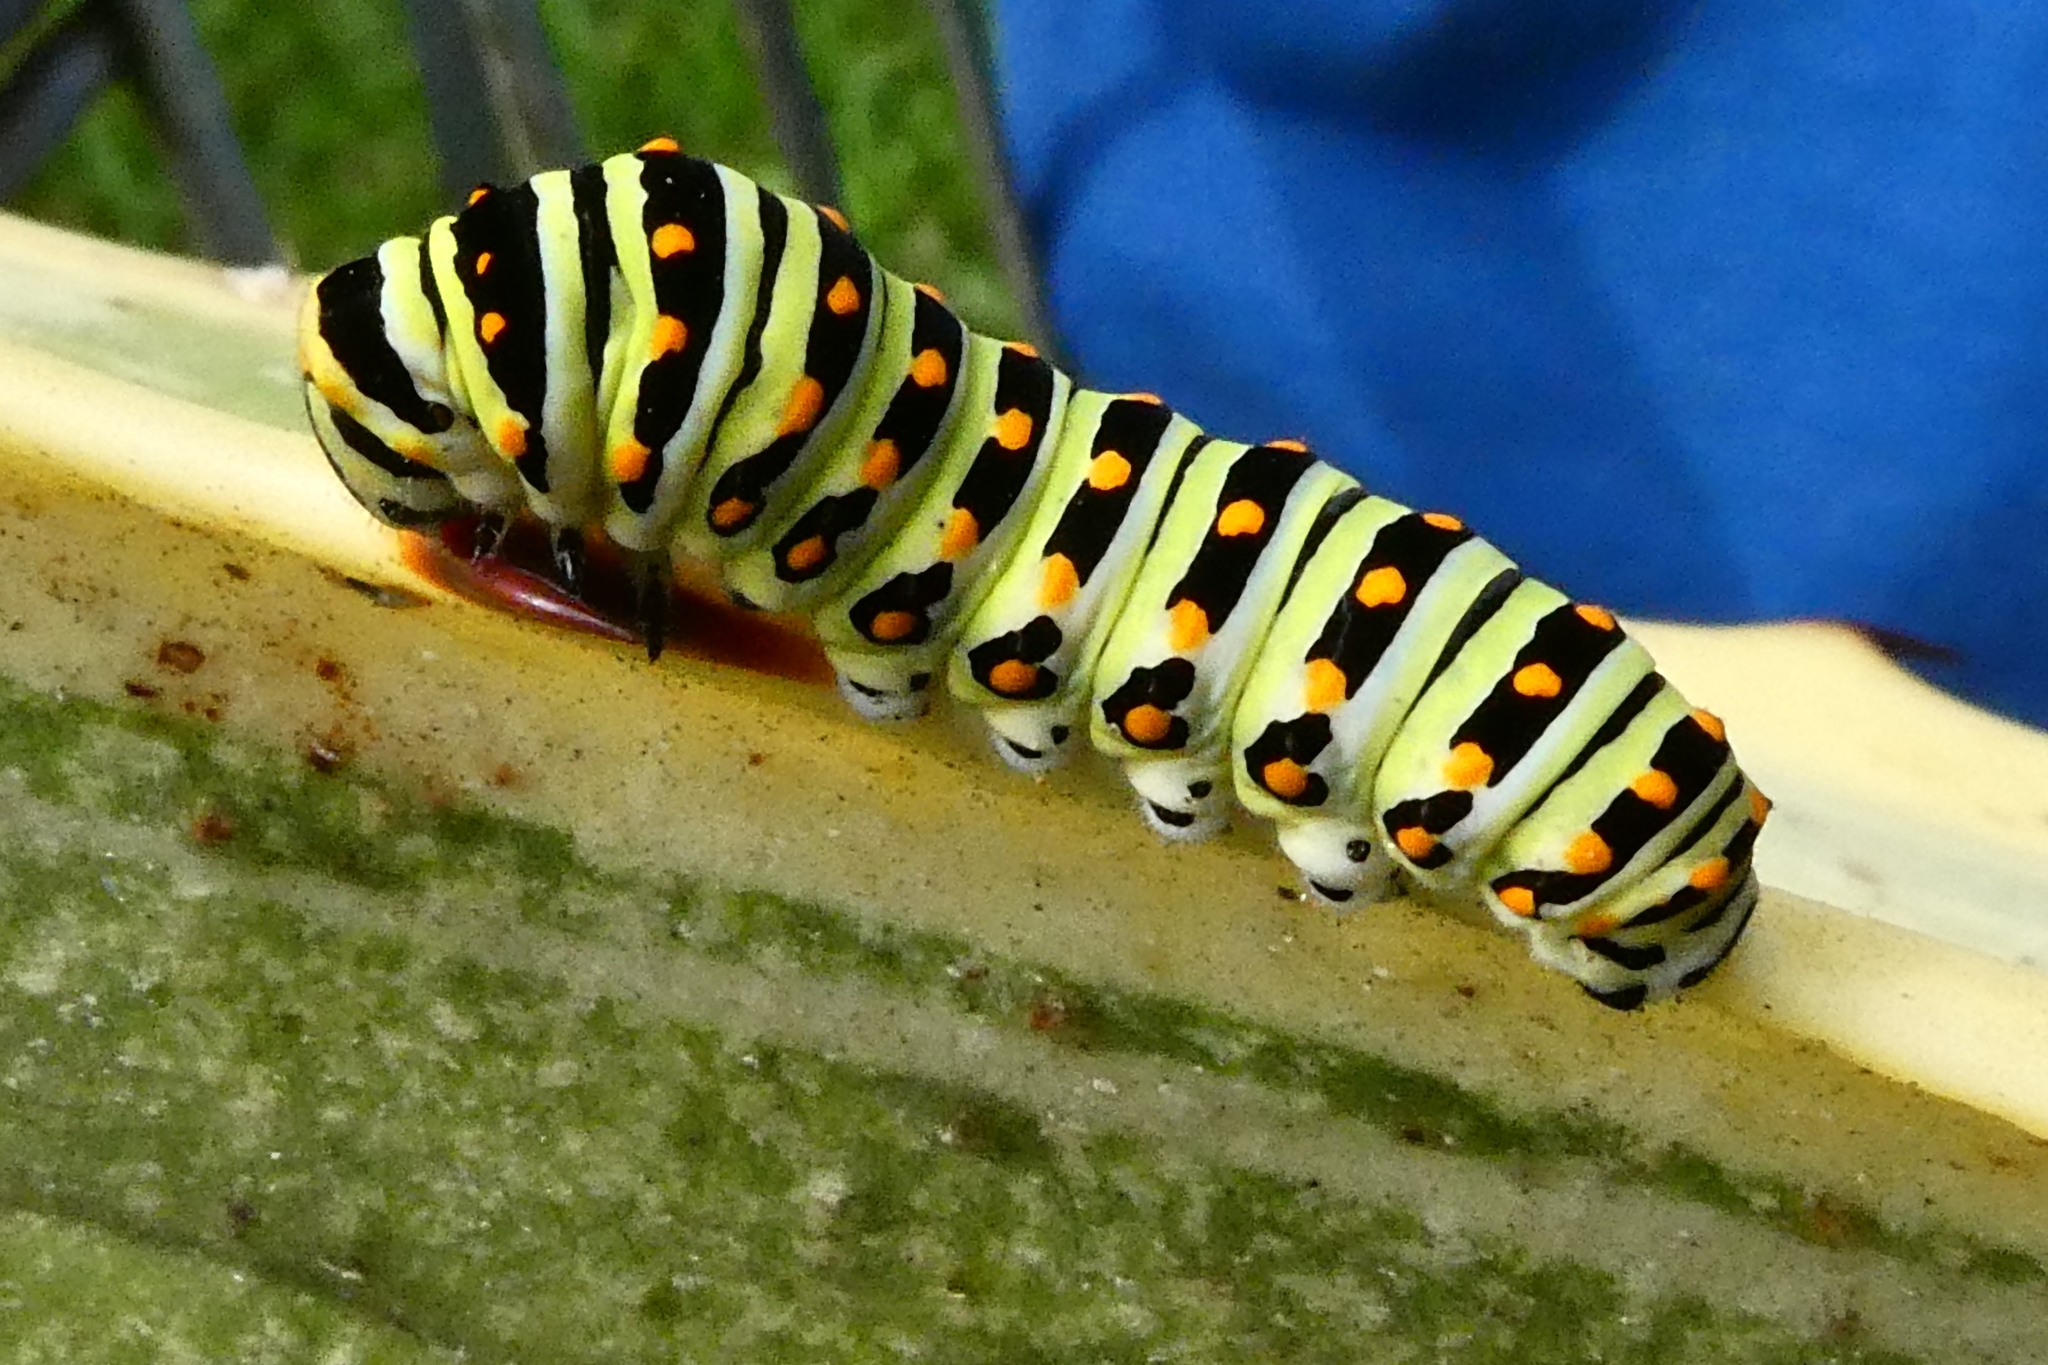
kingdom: Animalia
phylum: Arthropoda
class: Insecta
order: Lepidoptera
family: Papilionidae
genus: Papilio
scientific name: Papilio polyxenes
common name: Black swallowtail
